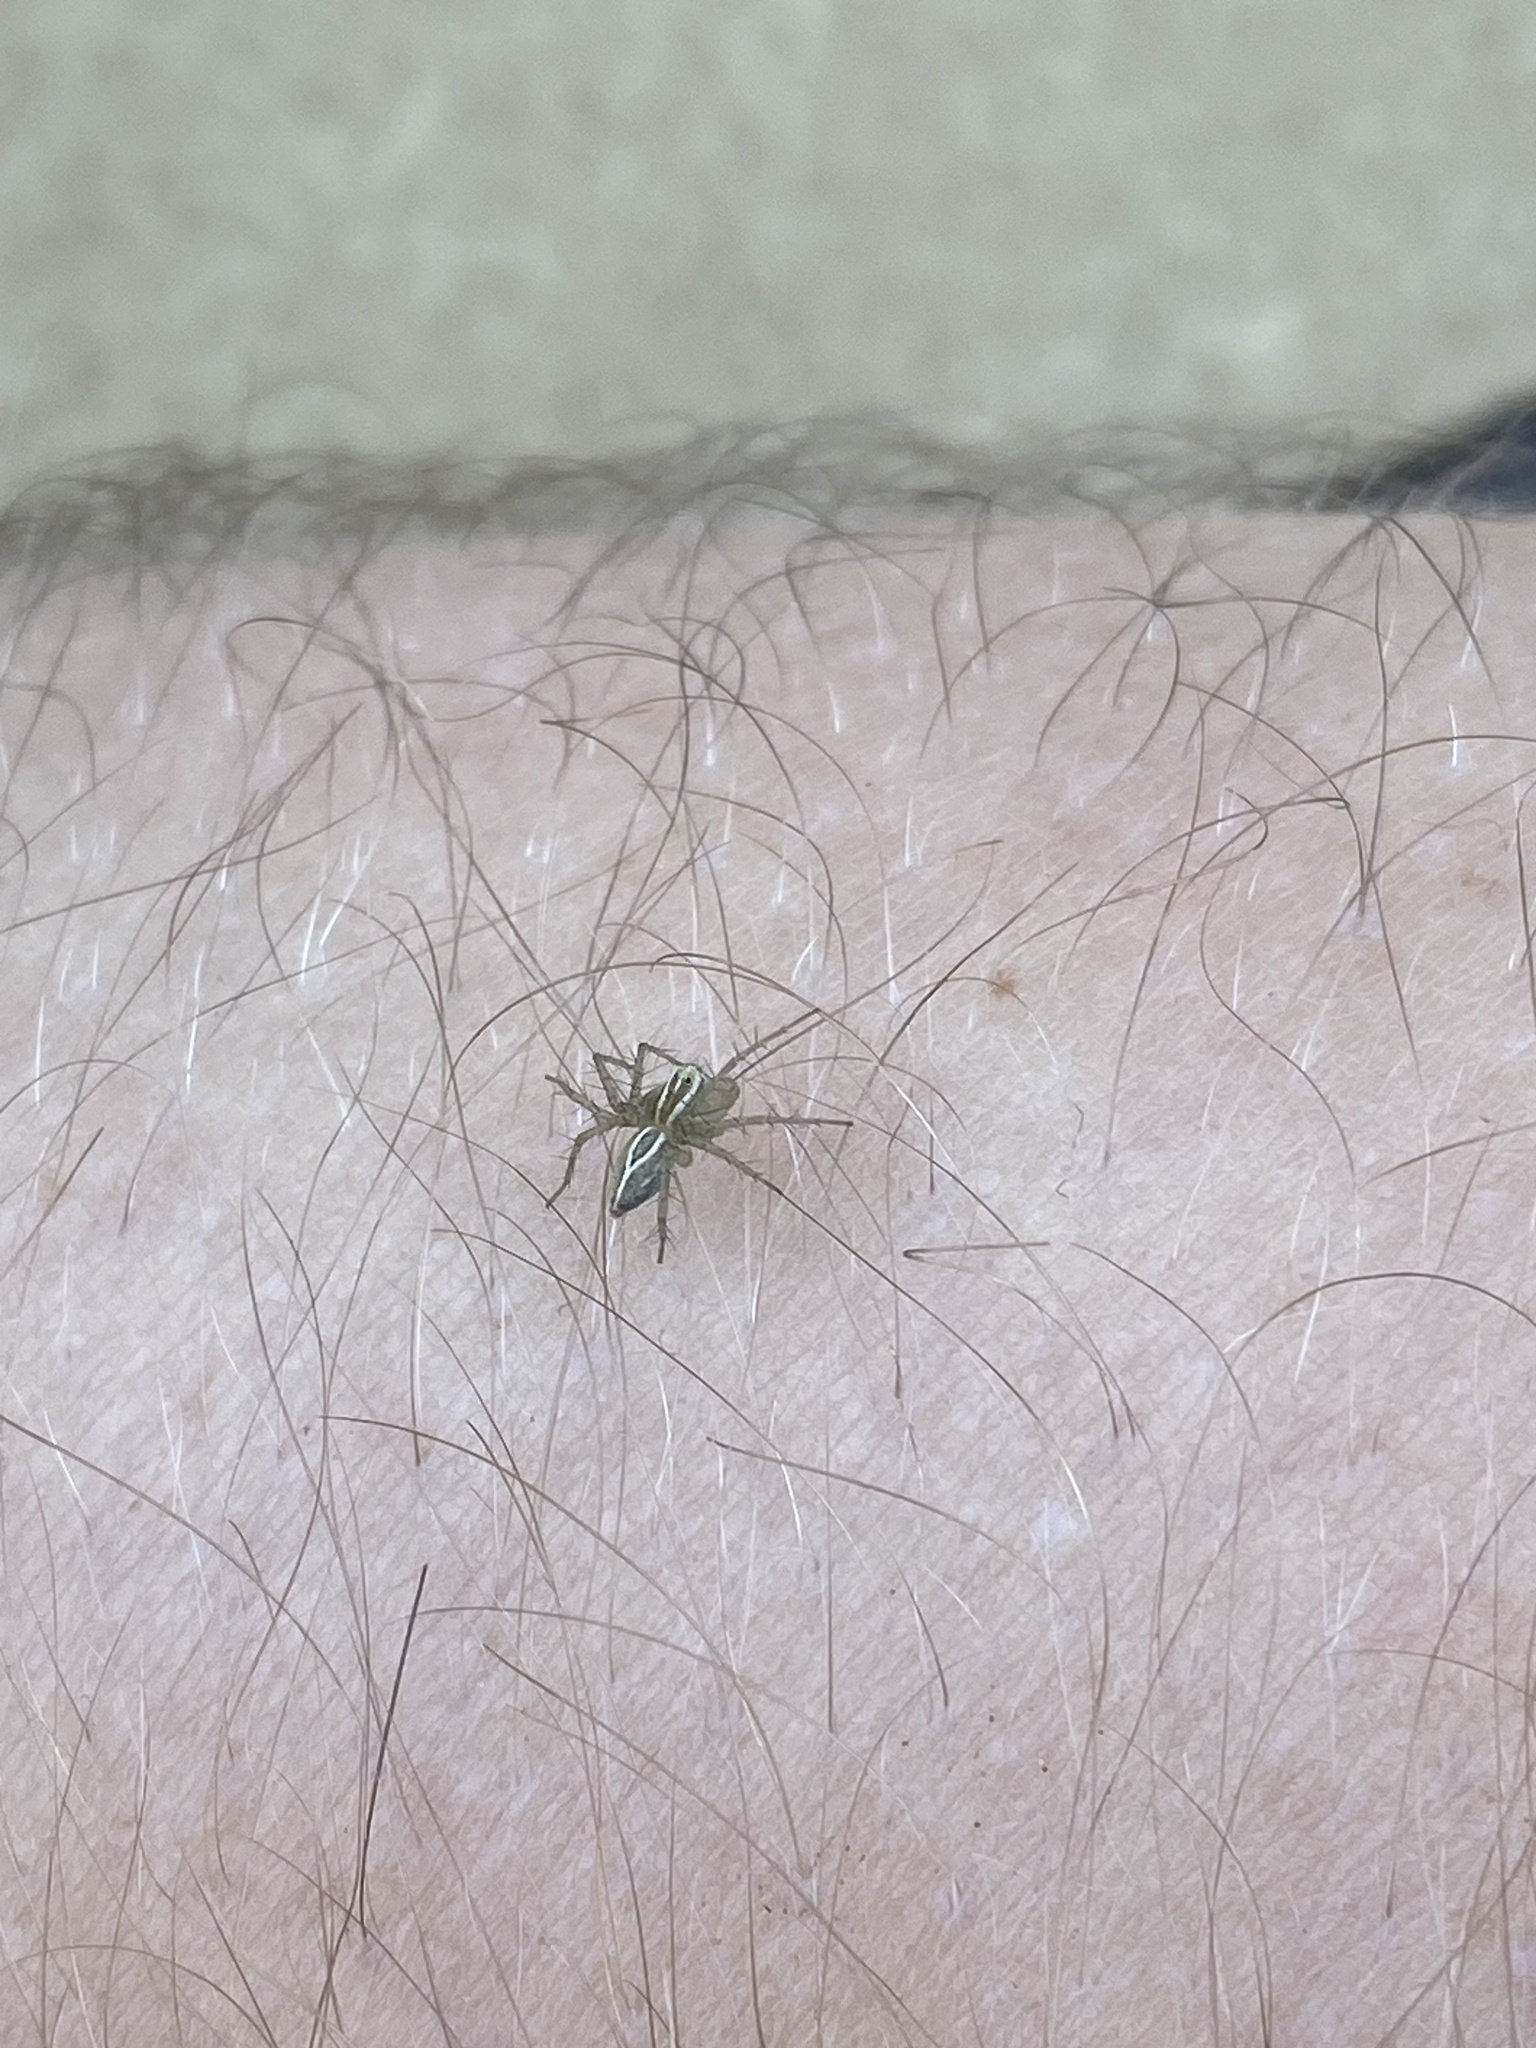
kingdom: Animalia
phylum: Arthropoda
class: Arachnida
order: Araneae
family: Oxyopidae
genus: Oxyopes
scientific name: Oxyopes salticus
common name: Lynx spiders
